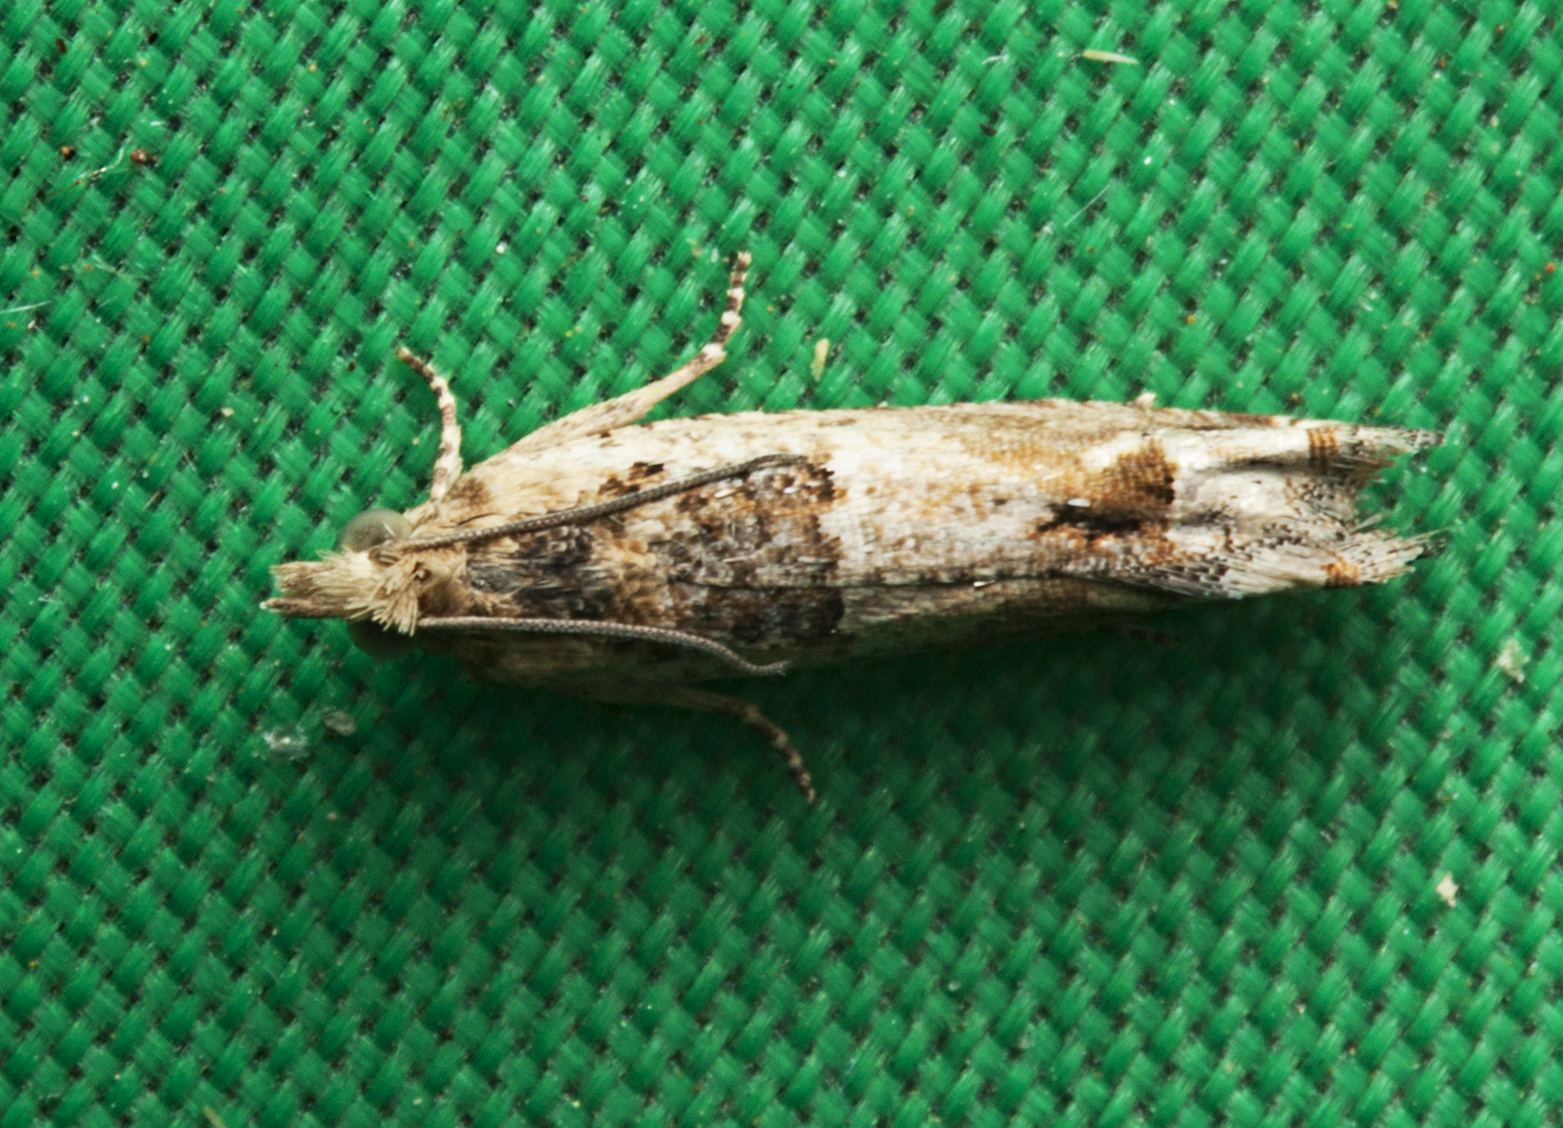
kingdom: Animalia
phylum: Arthropoda
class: Insecta
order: Lepidoptera
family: Tortricidae
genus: Crocidosema
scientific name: Crocidosema plebejana
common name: Southern bell
